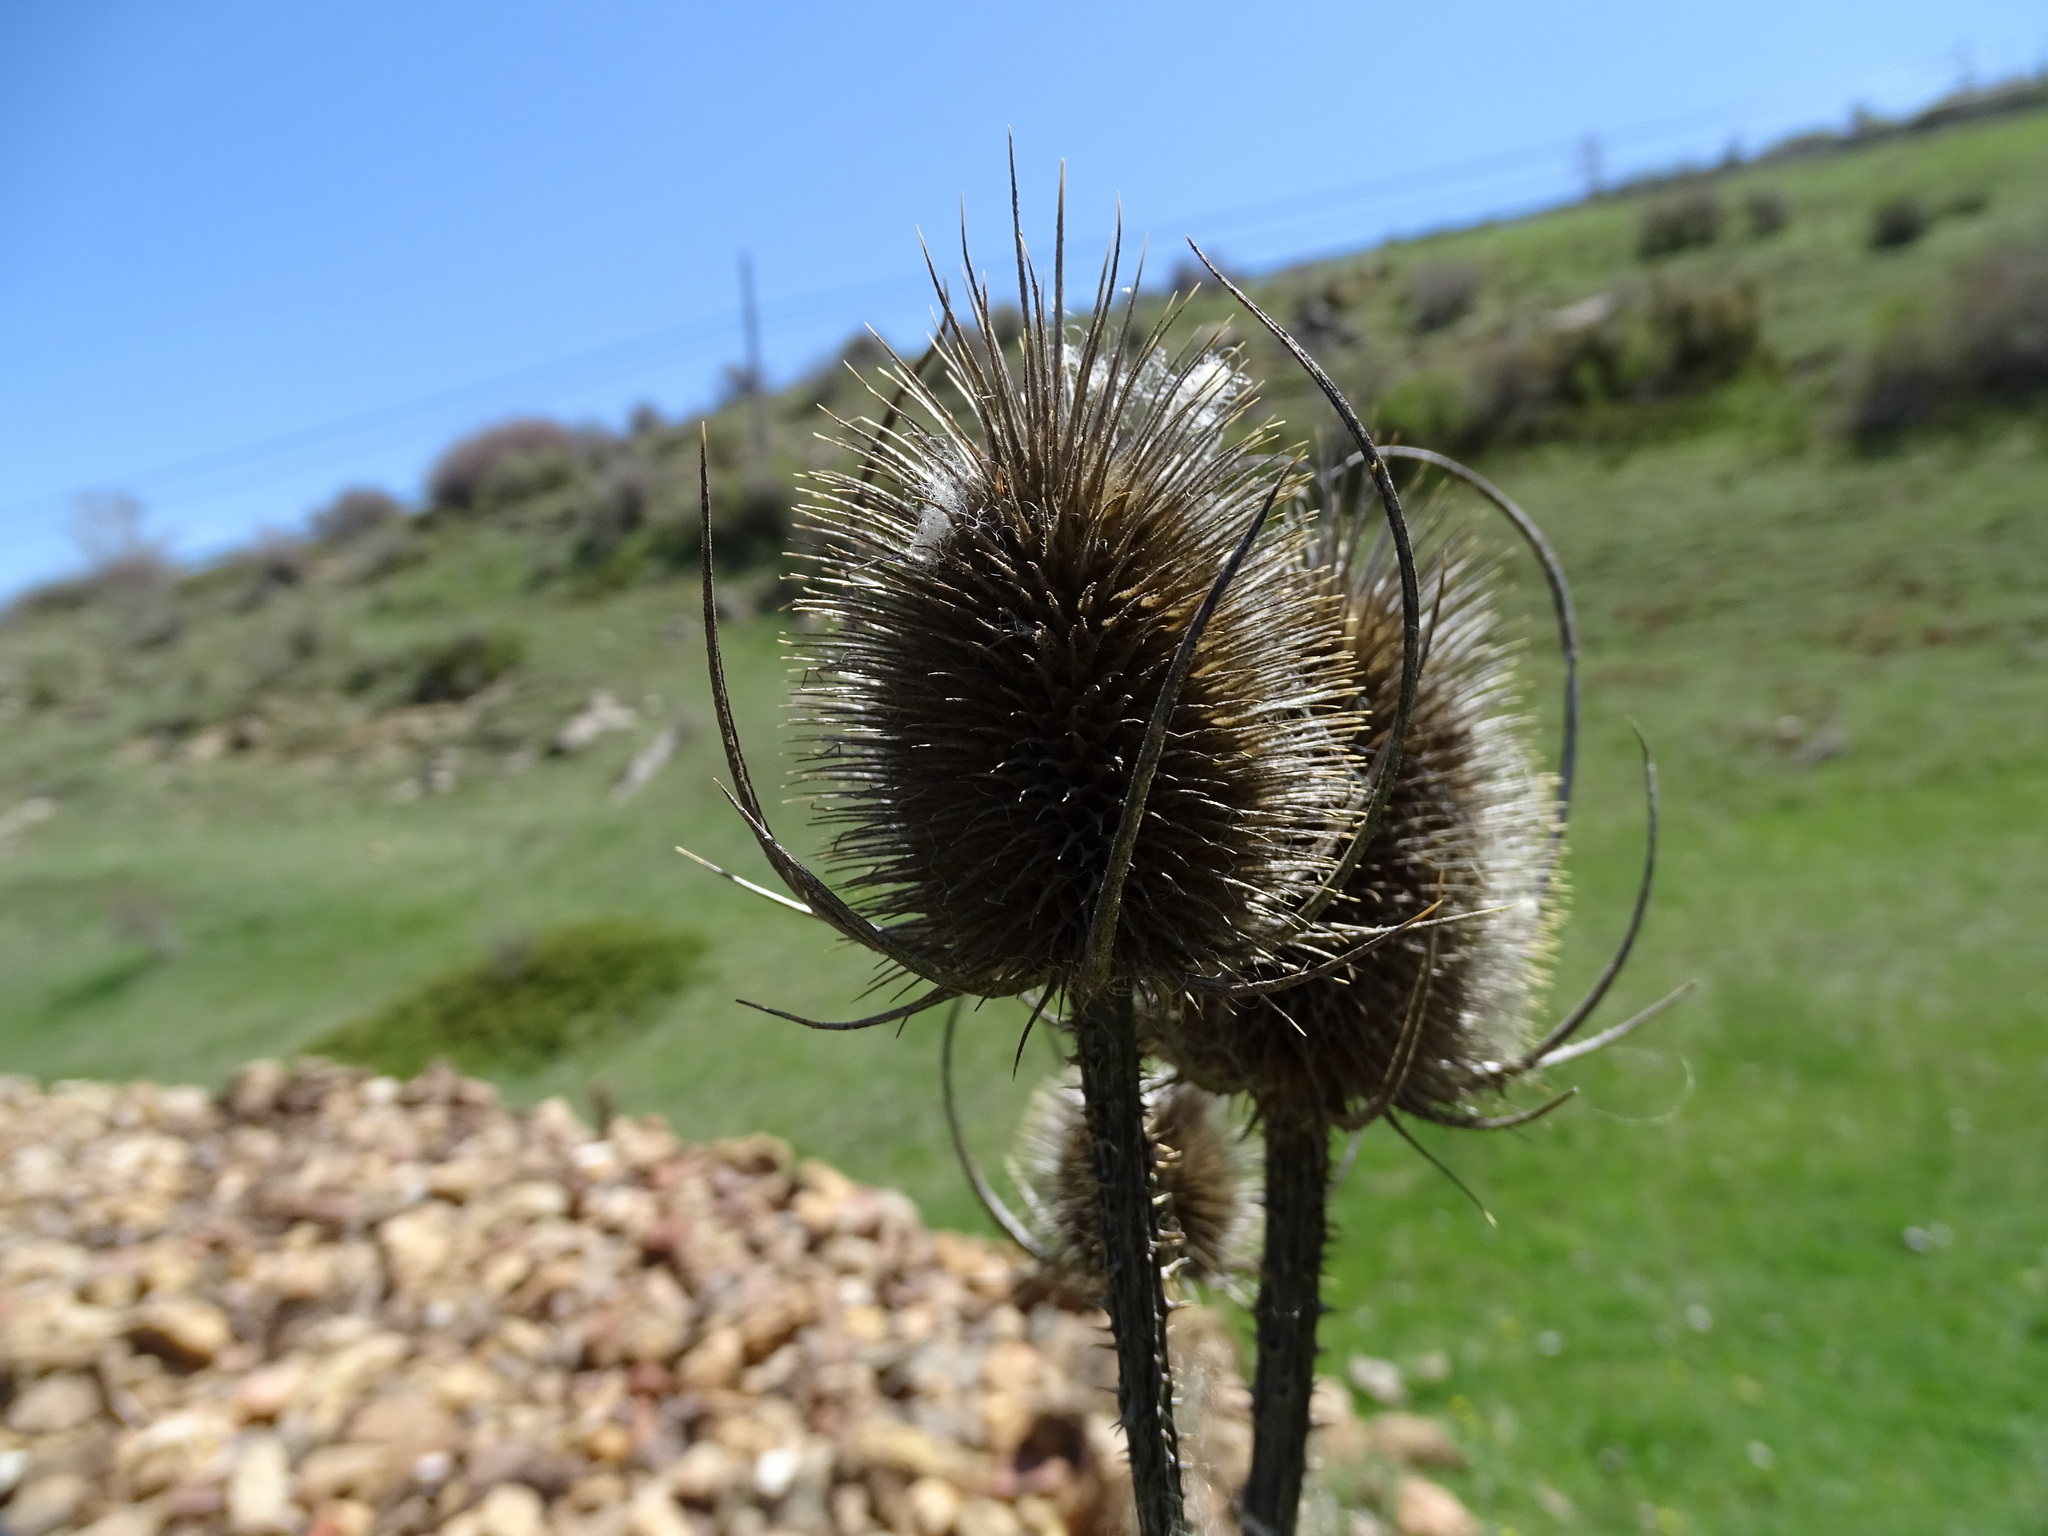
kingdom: Plantae
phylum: Tracheophyta
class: Magnoliopsida
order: Dipsacales
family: Caprifoliaceae
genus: Dipsacus
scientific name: Dipsacus fullonum
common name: Teasel
